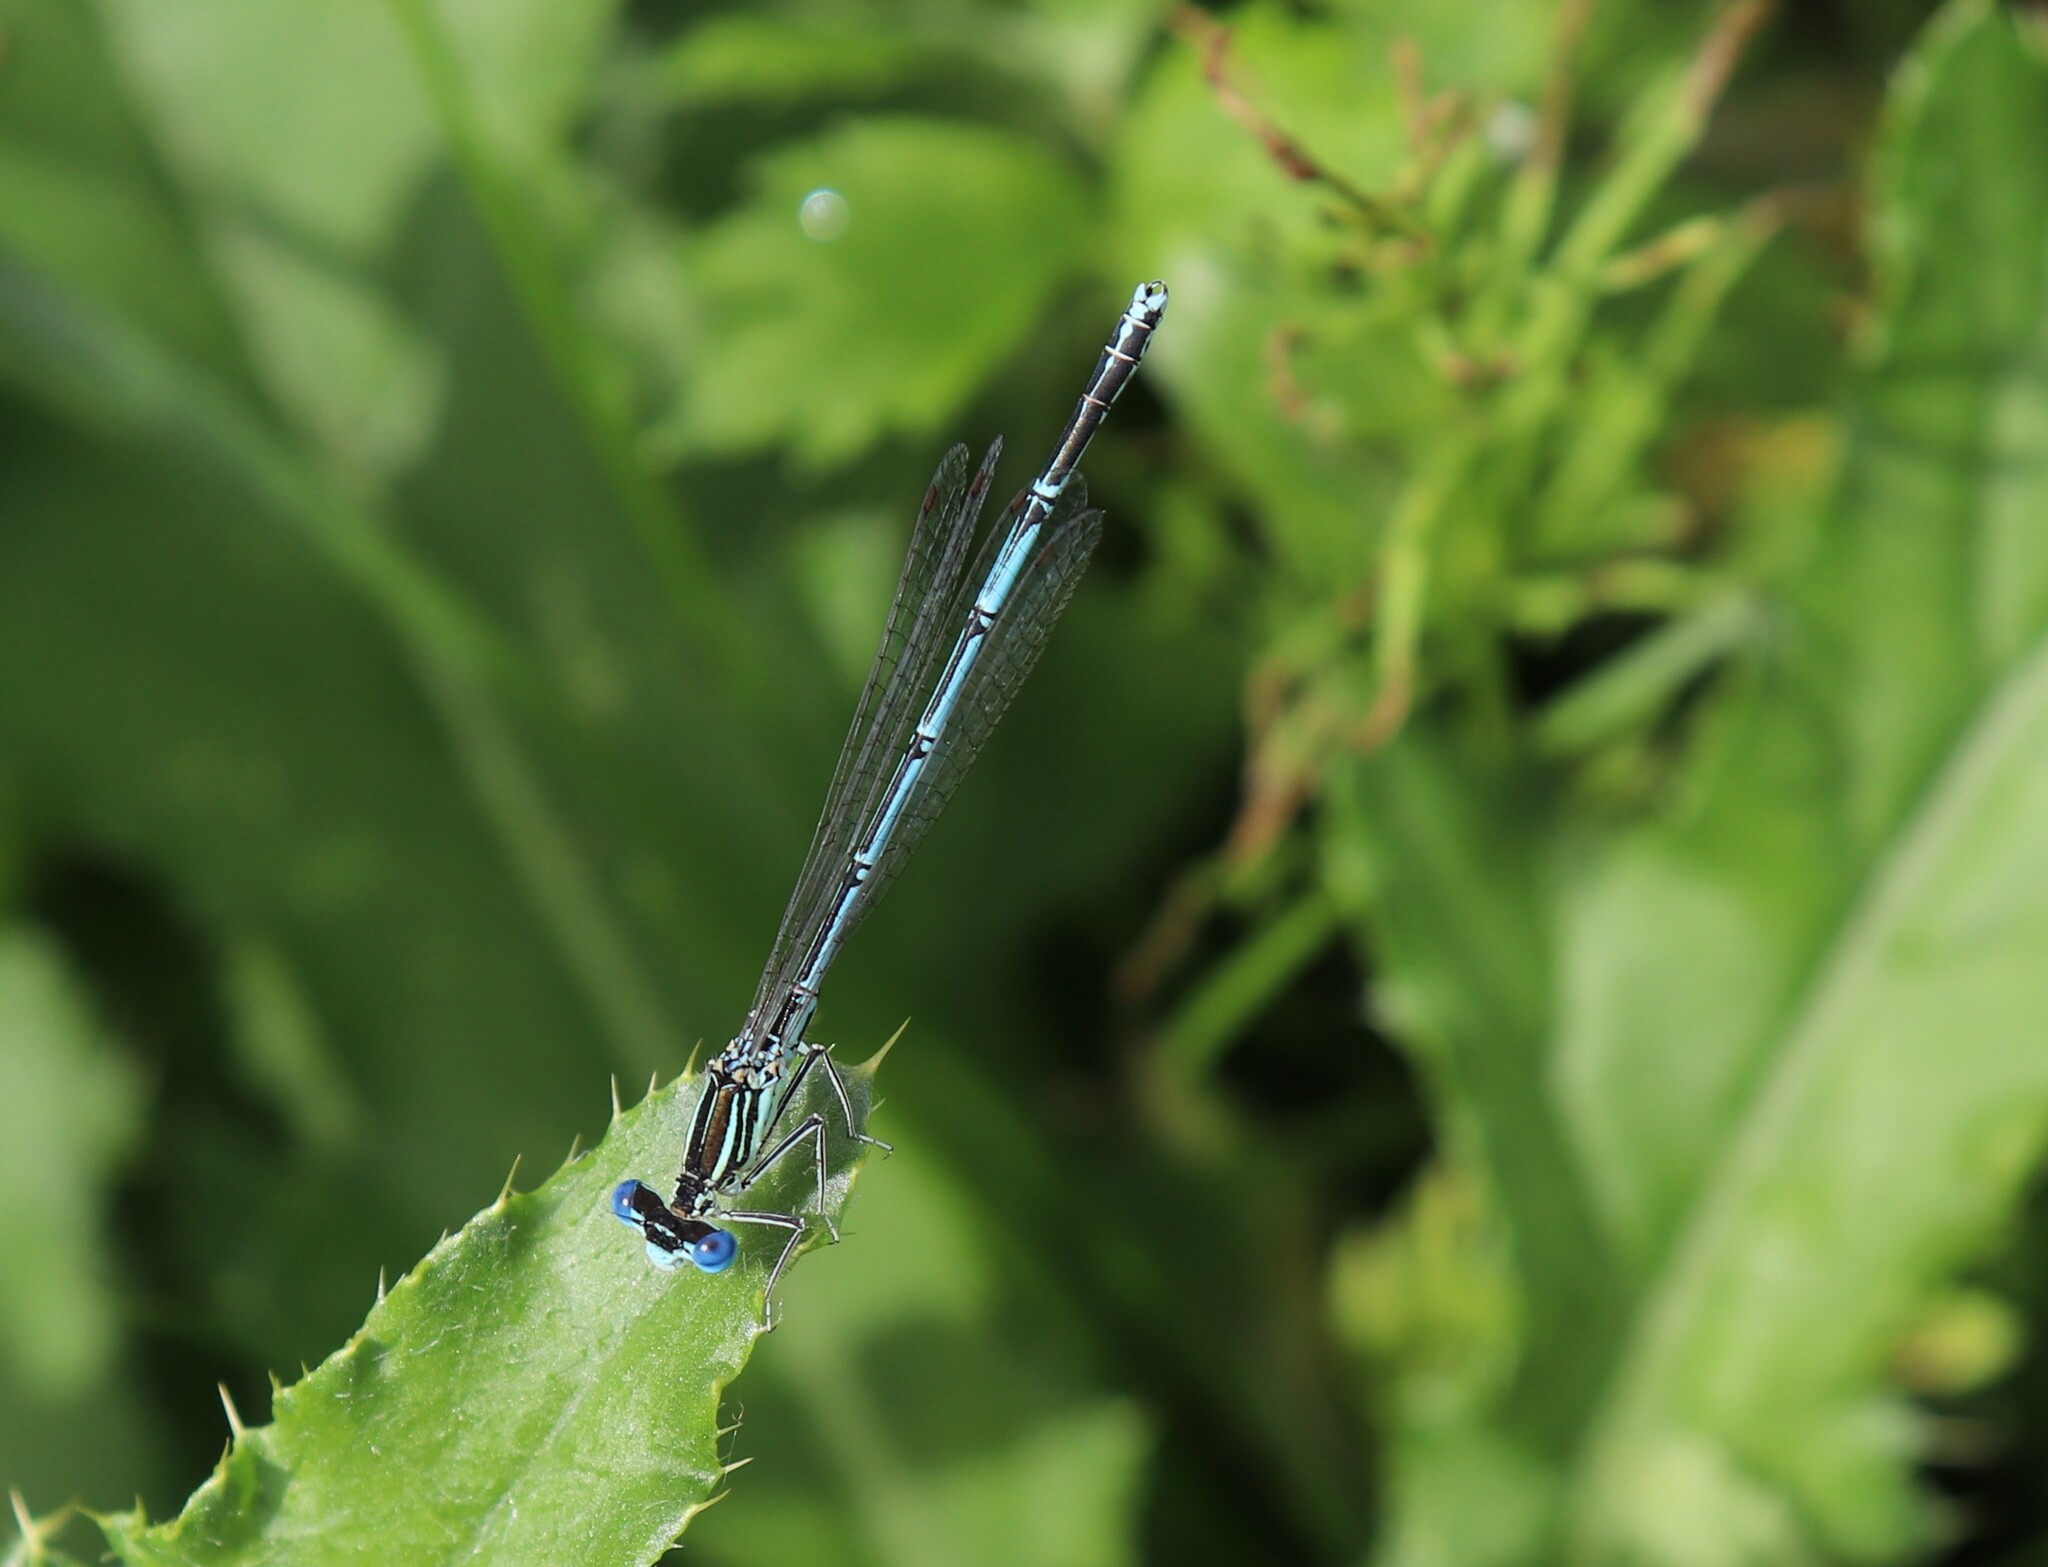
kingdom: Animalia
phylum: Arthropoda
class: Insecta
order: Odonata
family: Platycnemididae
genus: Platycnemis
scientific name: Platycnemis pennipes
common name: White-legged damselfly
